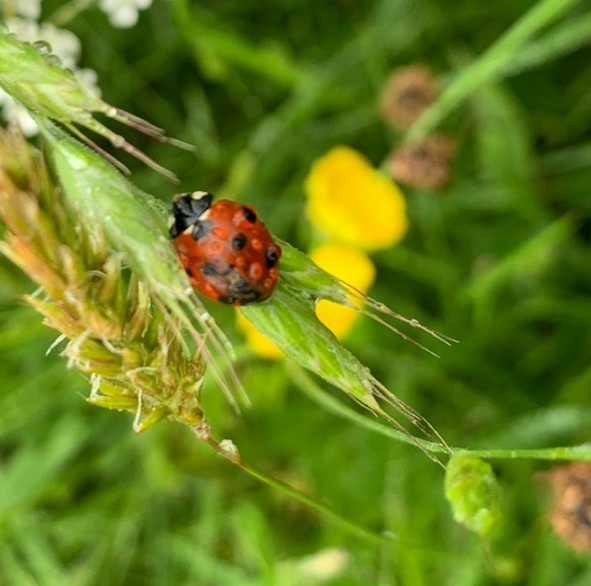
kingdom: Animalia
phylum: Arthropoda
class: Insecta
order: Coleoptera
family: Coccinellidae
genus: Coccinella
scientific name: Coccinella septempunctata
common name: Sevenspotted lady beetle
